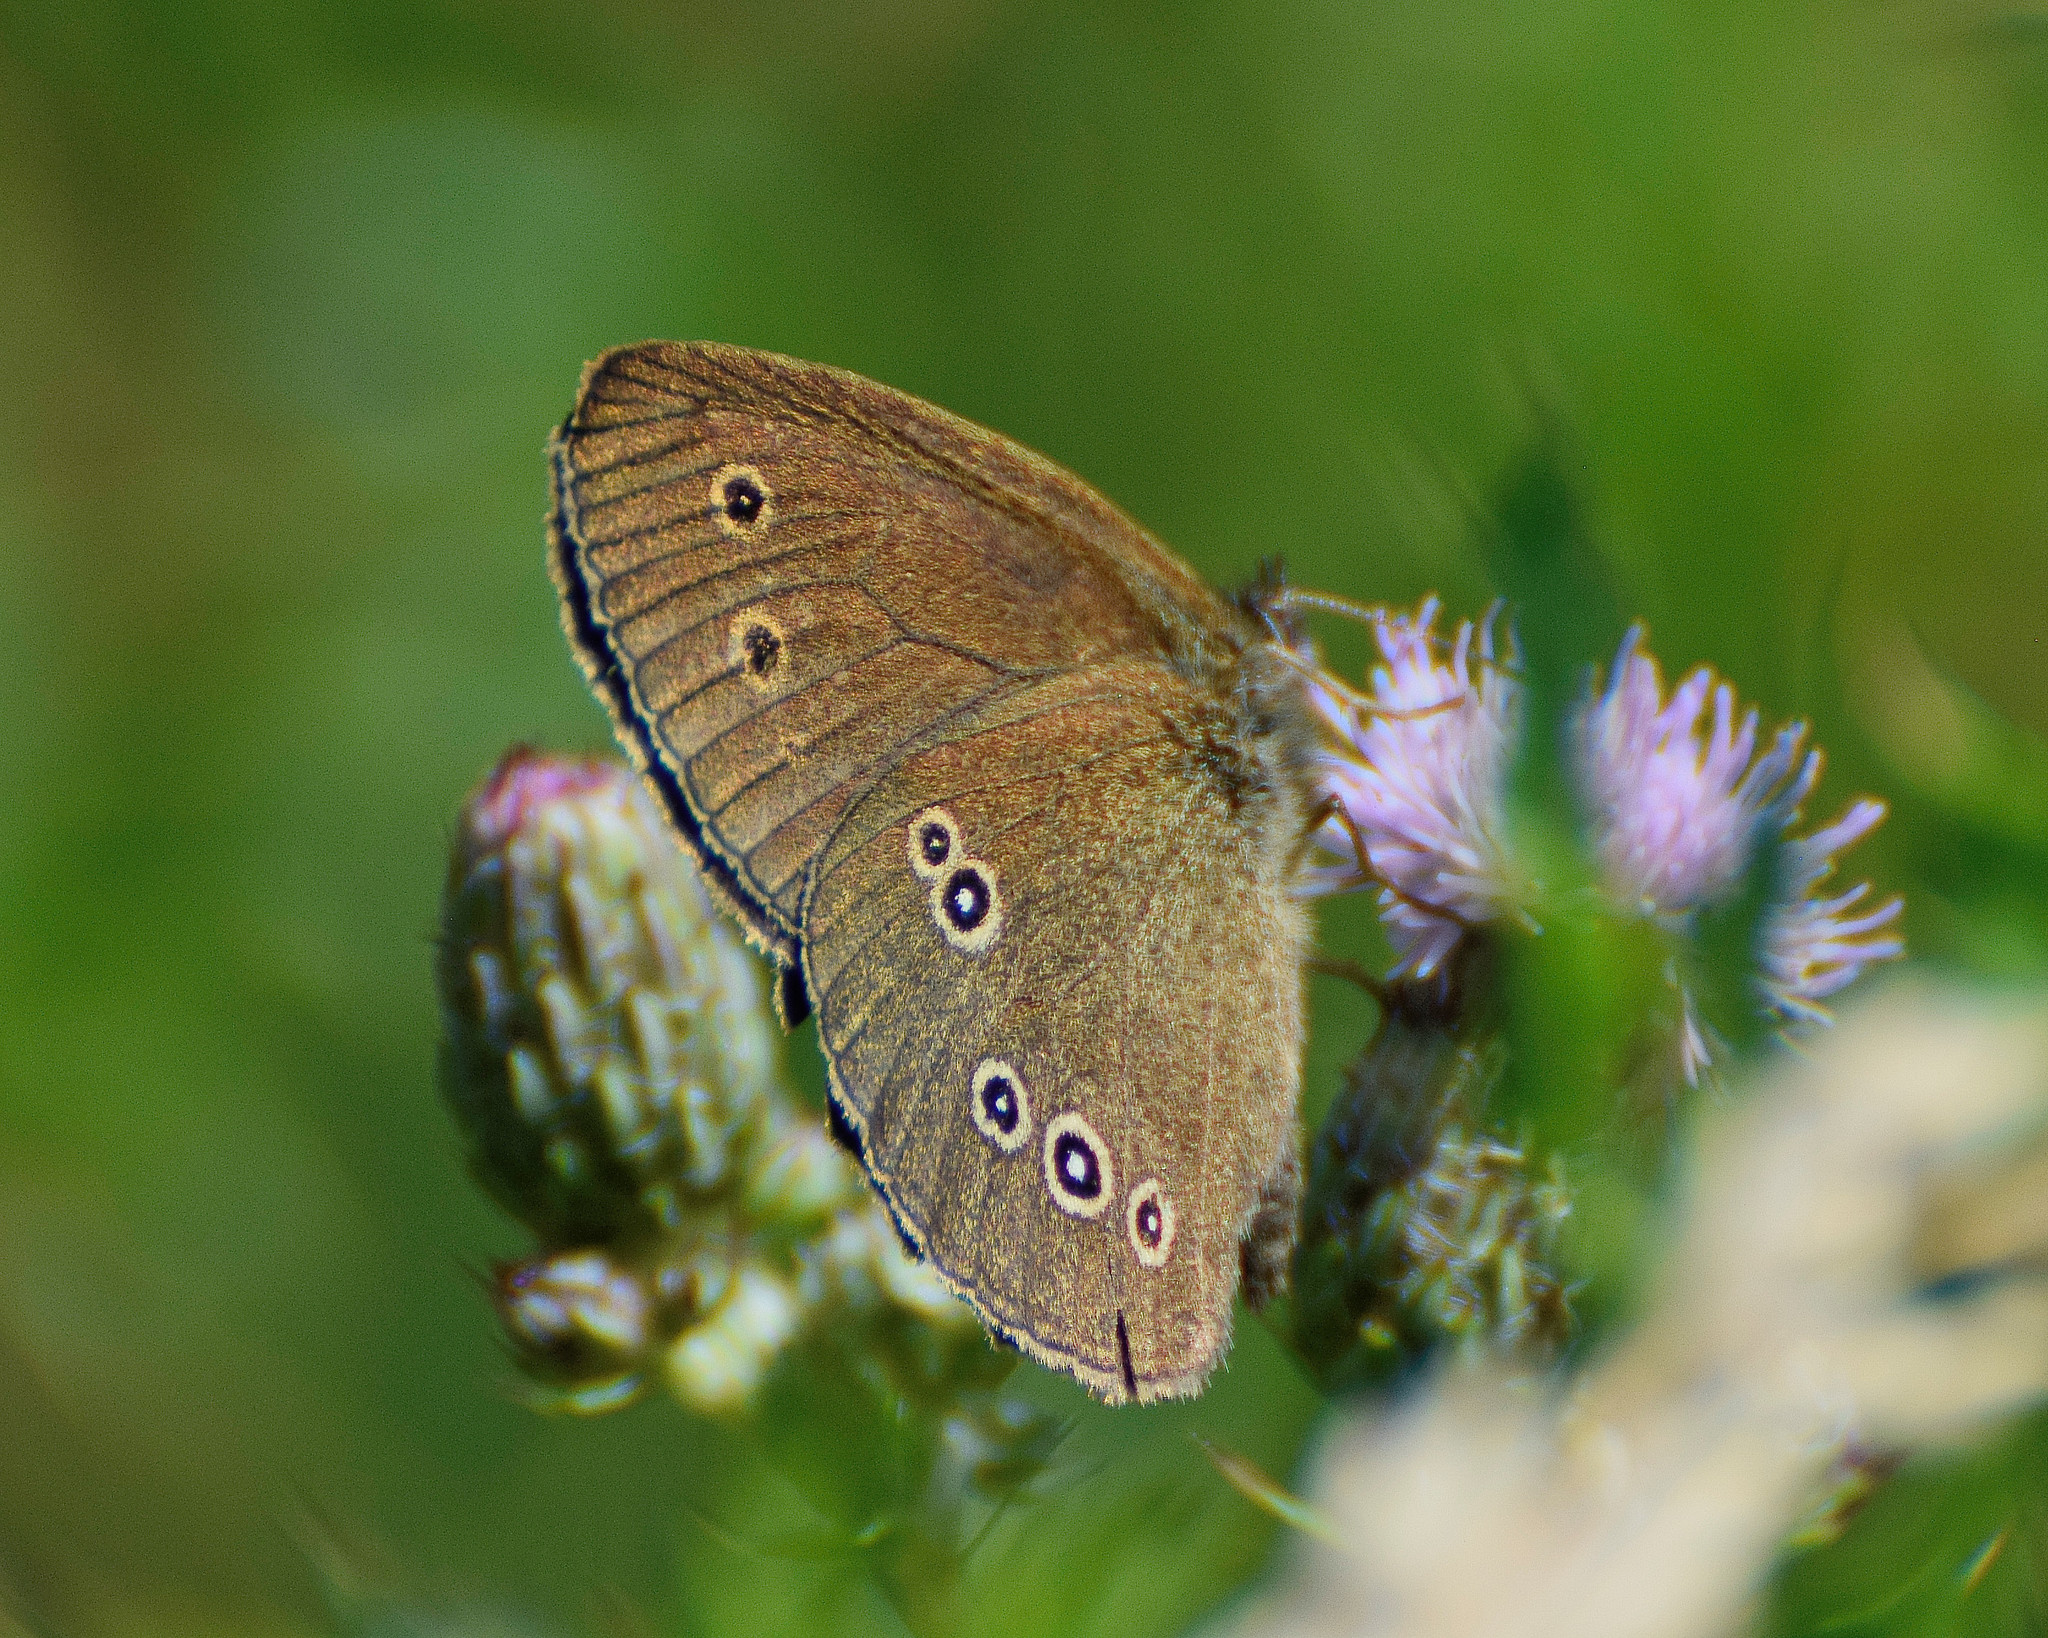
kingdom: Animalia
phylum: Arthropoda
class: Insecta
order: Lepidoptera
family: Nymphalidae
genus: Aphantopus
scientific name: Aphantopus hyperantus
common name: Ringlet
